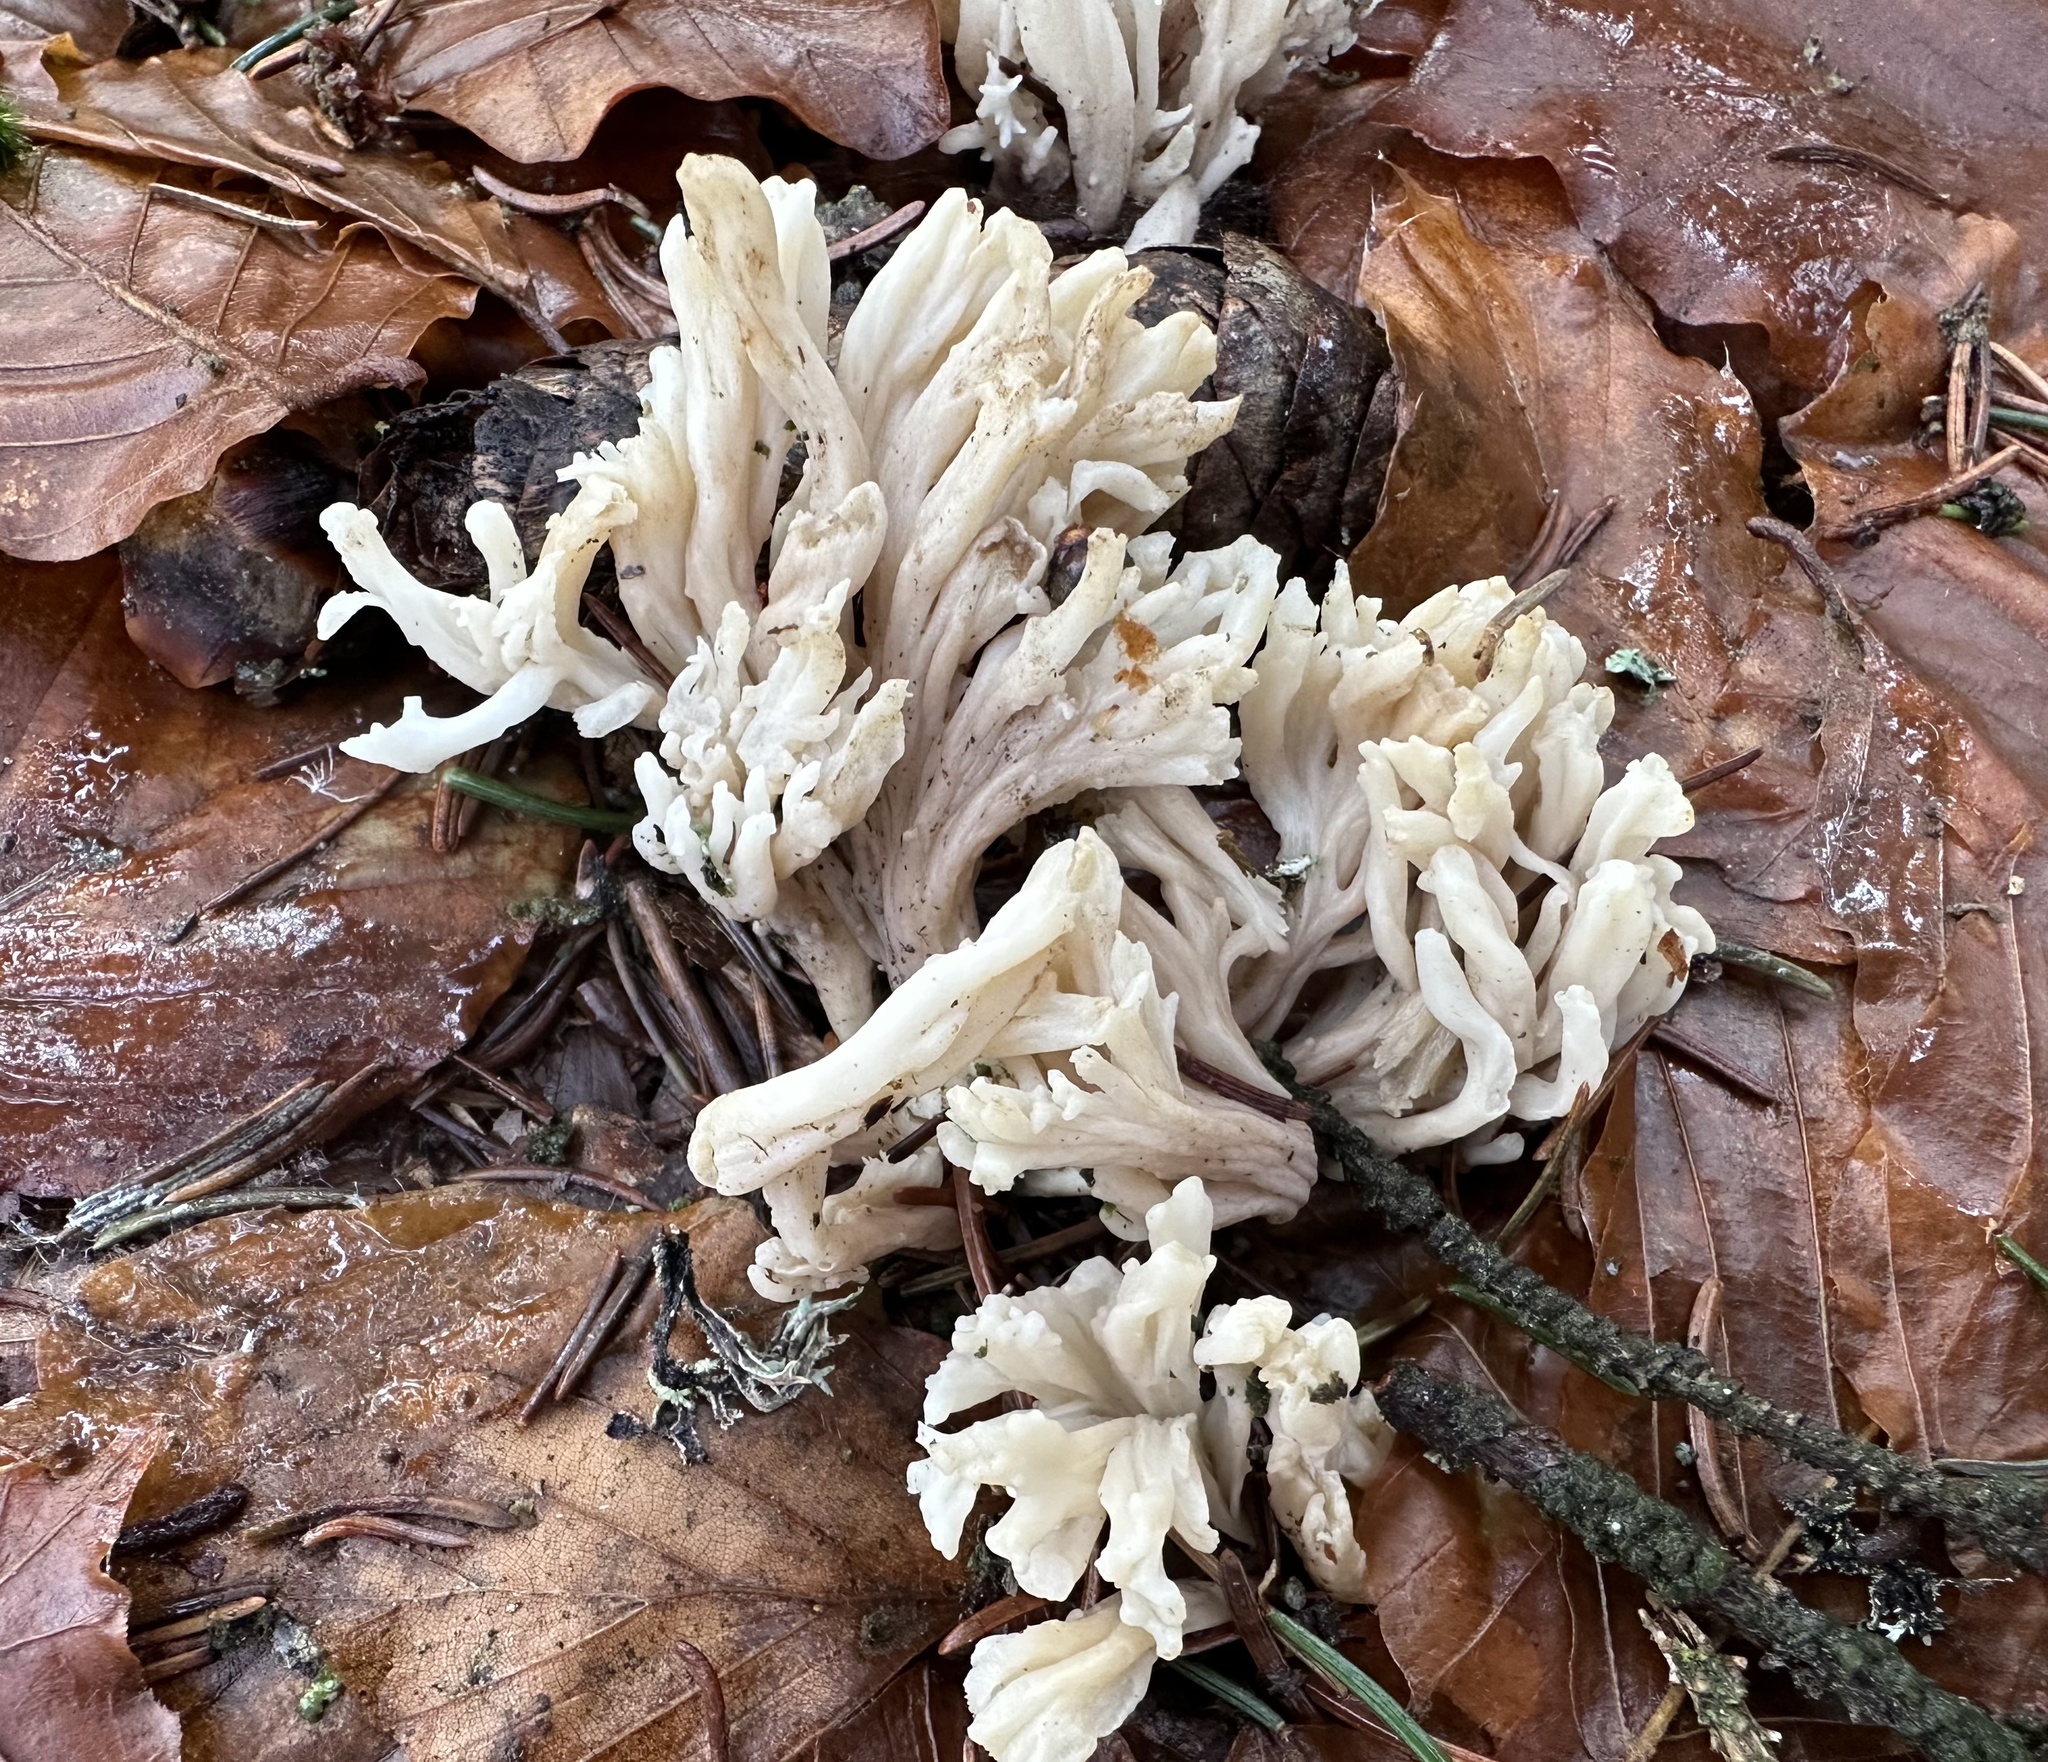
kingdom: Fungi
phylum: Basidiomycota
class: Agaricomycetes
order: Cantharellales
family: Hydnaceae
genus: Clavulina
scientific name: Clavulina rugosa
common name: Wrinkled club
